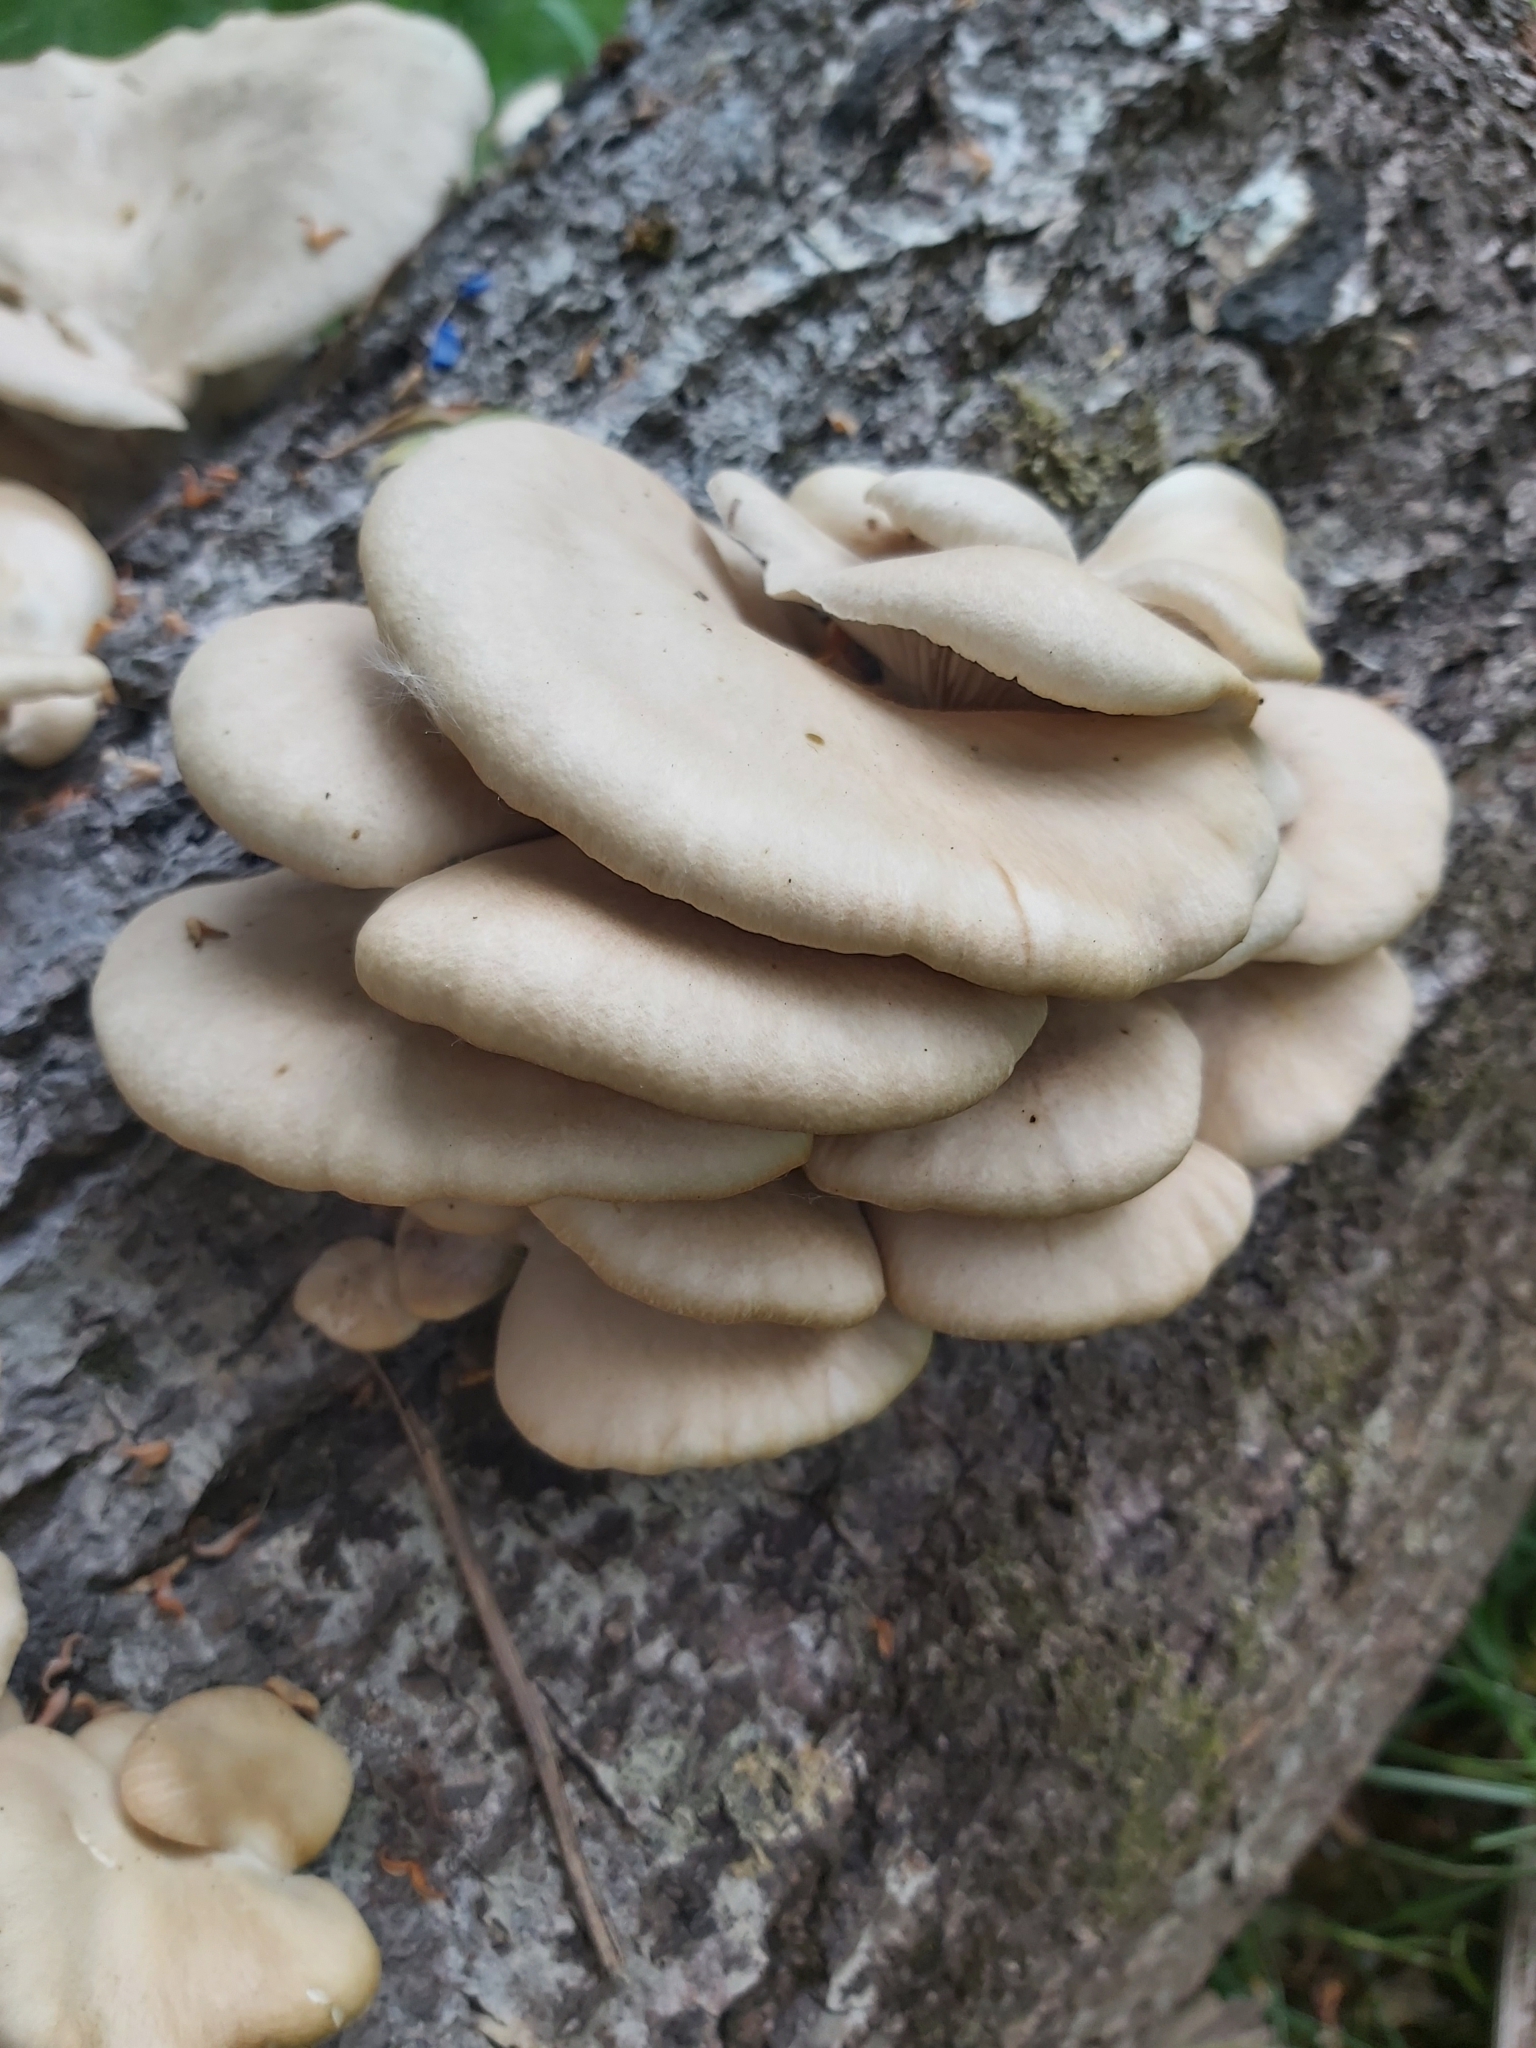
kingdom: Fungi
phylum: Basidiomycota
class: Agaricomycetes
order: Agaricales
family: Pleurotaceae
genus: Pleurotus
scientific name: Pleurotus ostreatus
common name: Oyster mushroom
